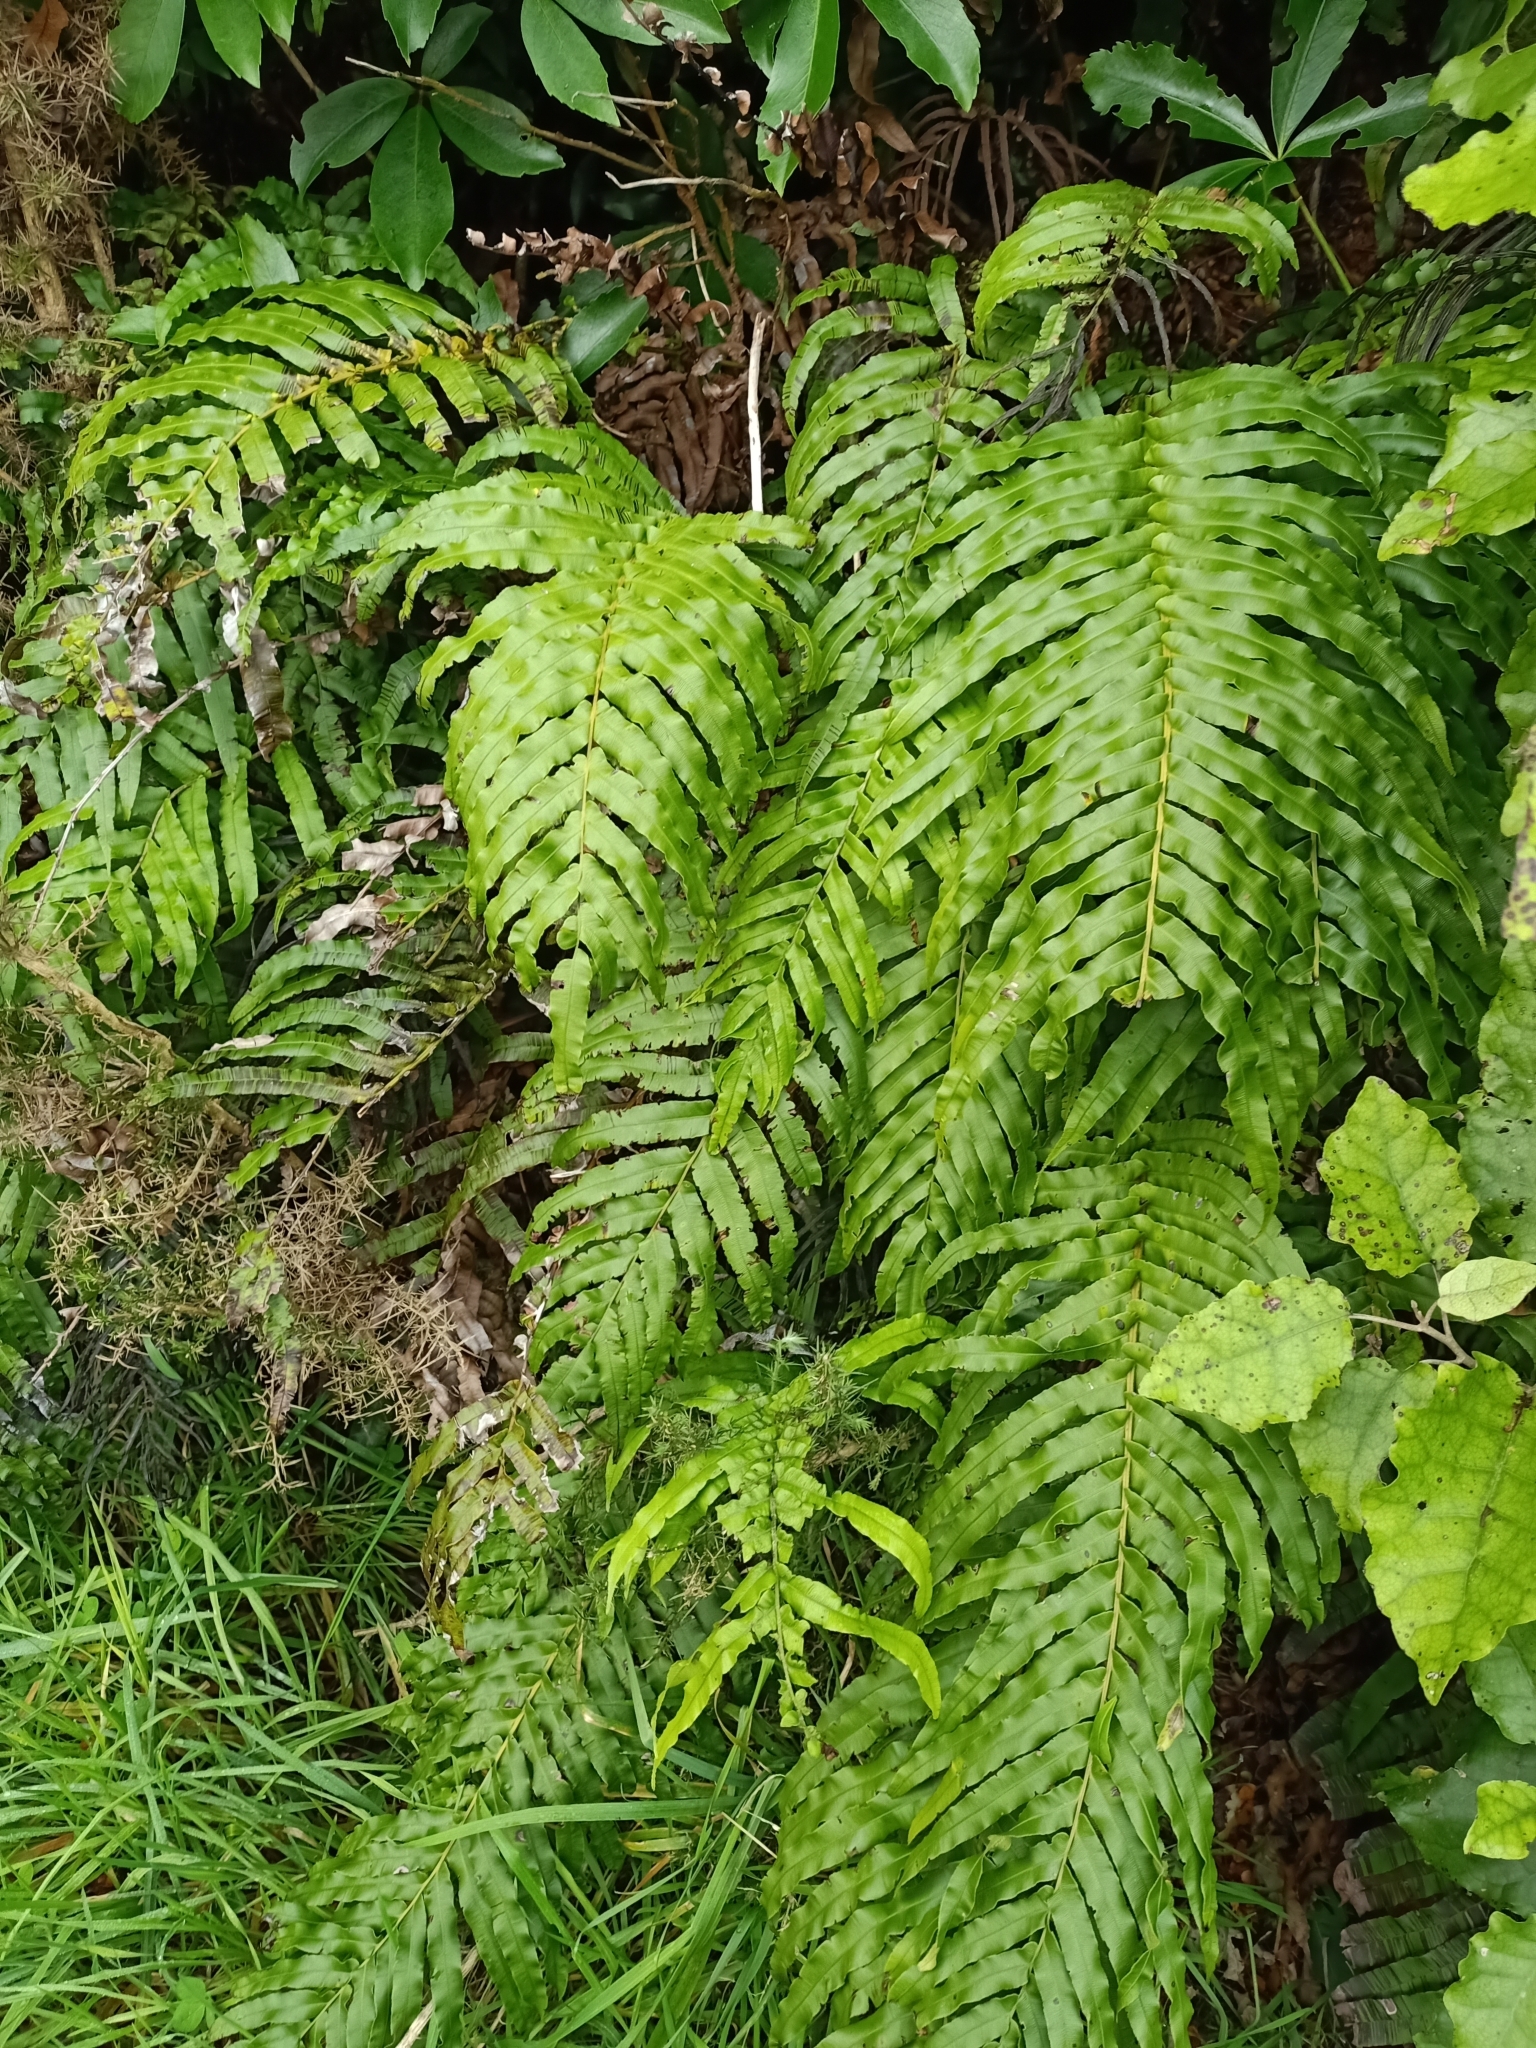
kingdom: Plantae
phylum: Tracheophyta
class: Polypodiopsida
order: Polypodiales
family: Blechnaceae
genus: Parablechnum
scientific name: Parablechnum novae-zelandiae
